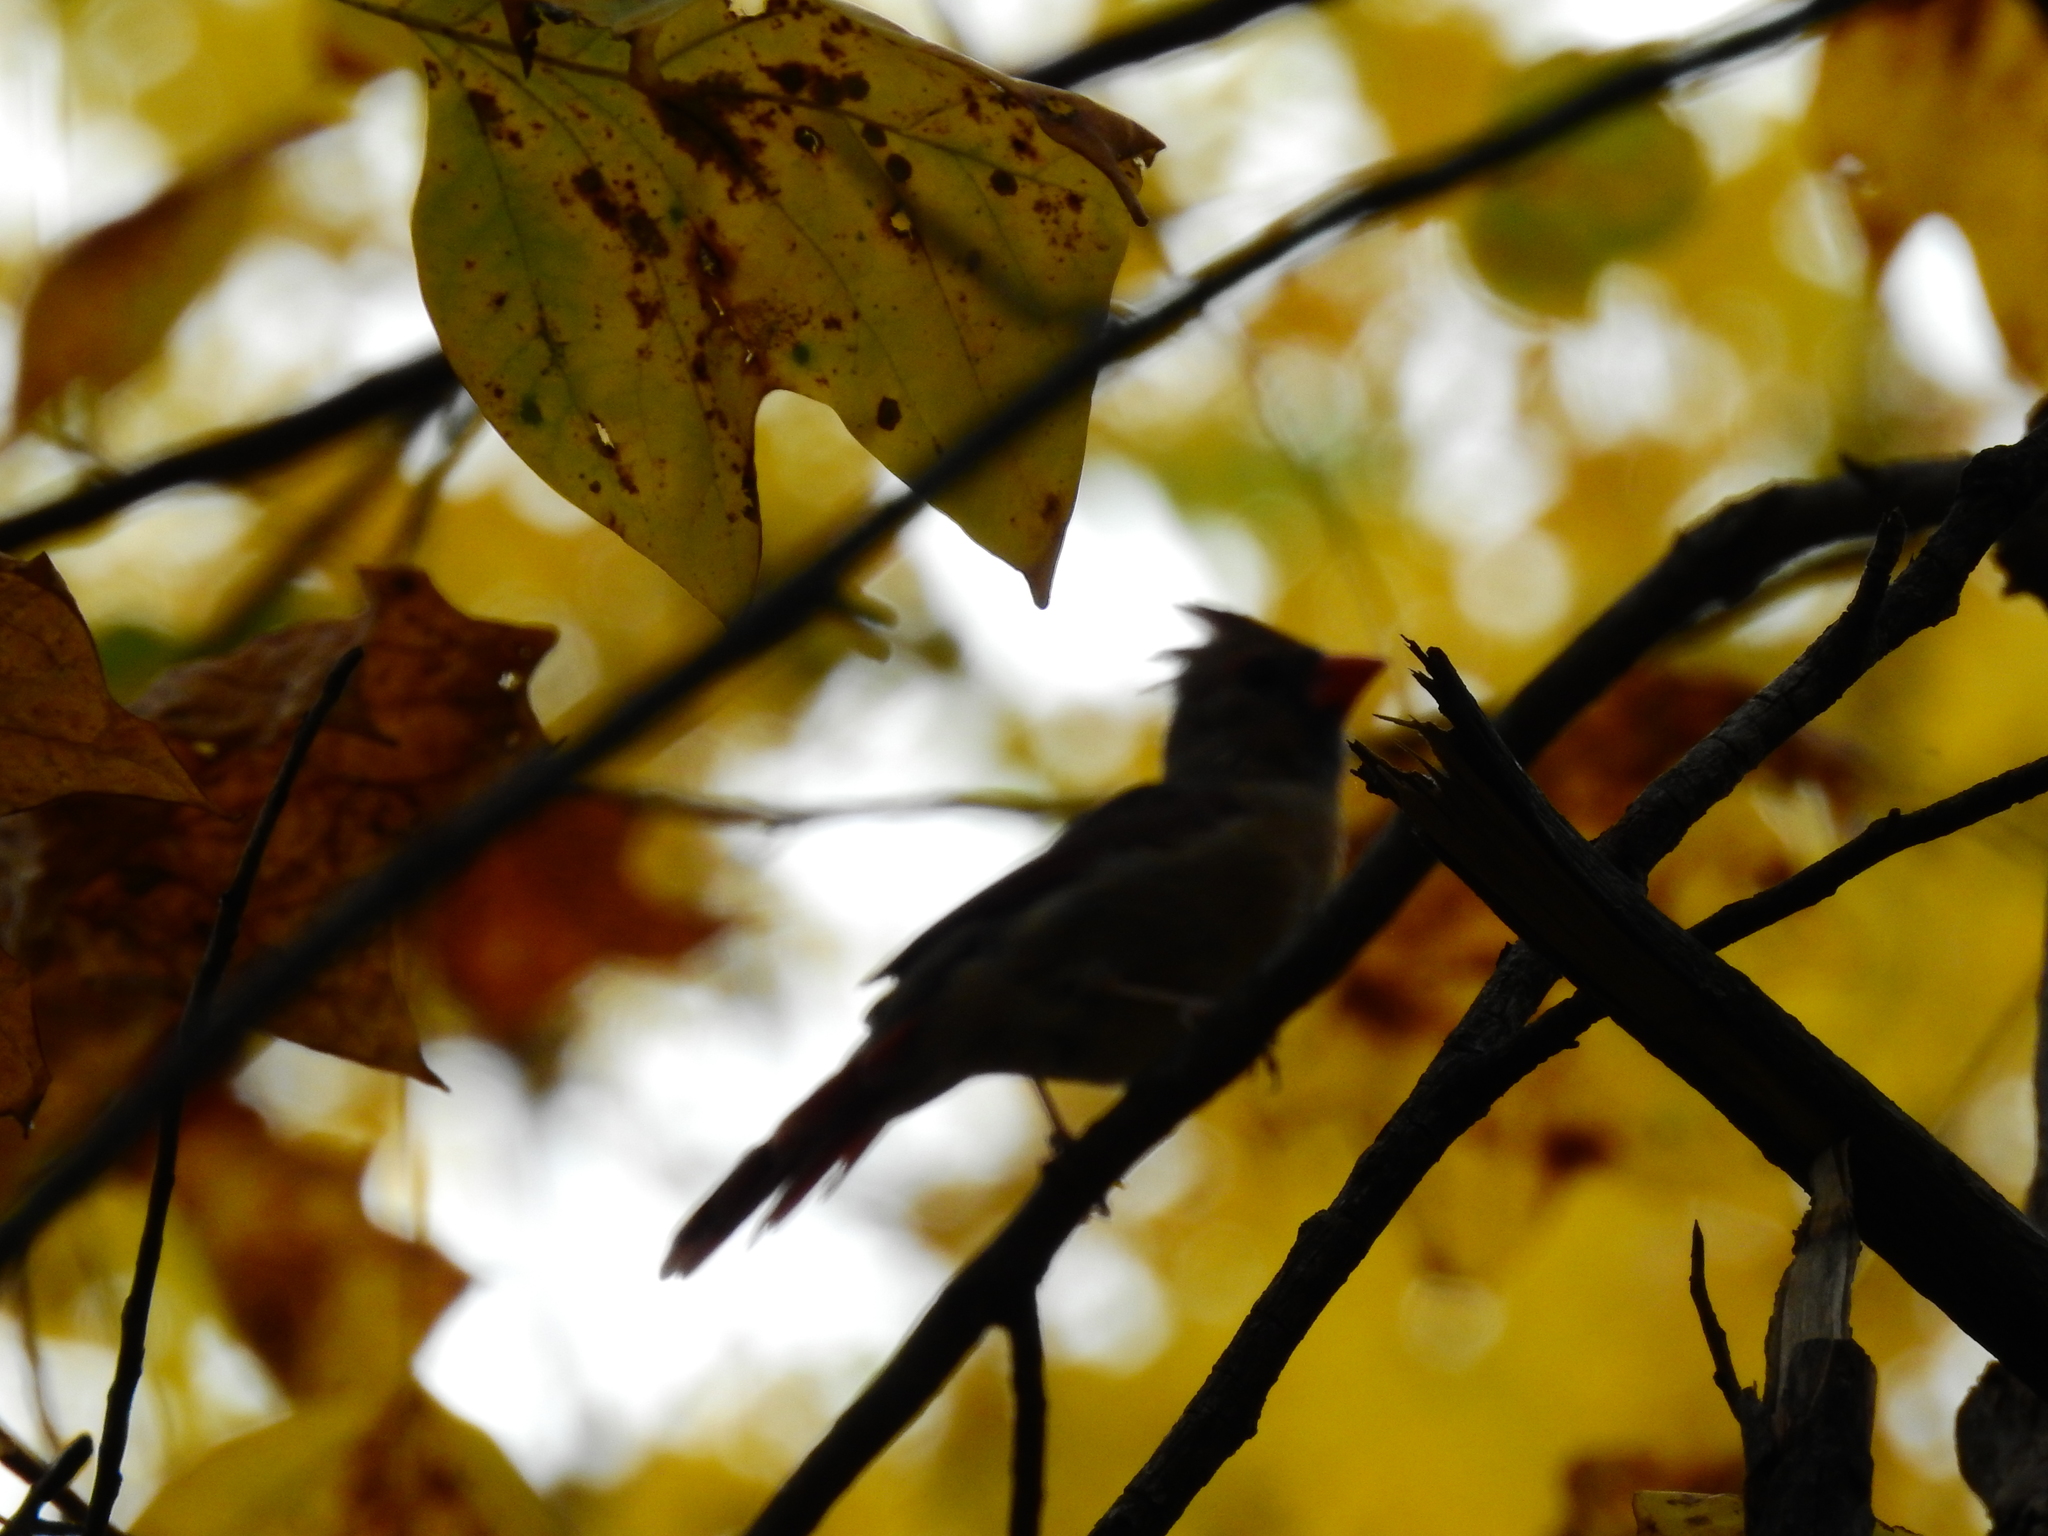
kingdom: Animalia
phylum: Chordata
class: Aves
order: Passeriformes
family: Cardinalidae
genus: Cardinalis
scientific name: Cardinalis cardinalis
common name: Northern cardinal
